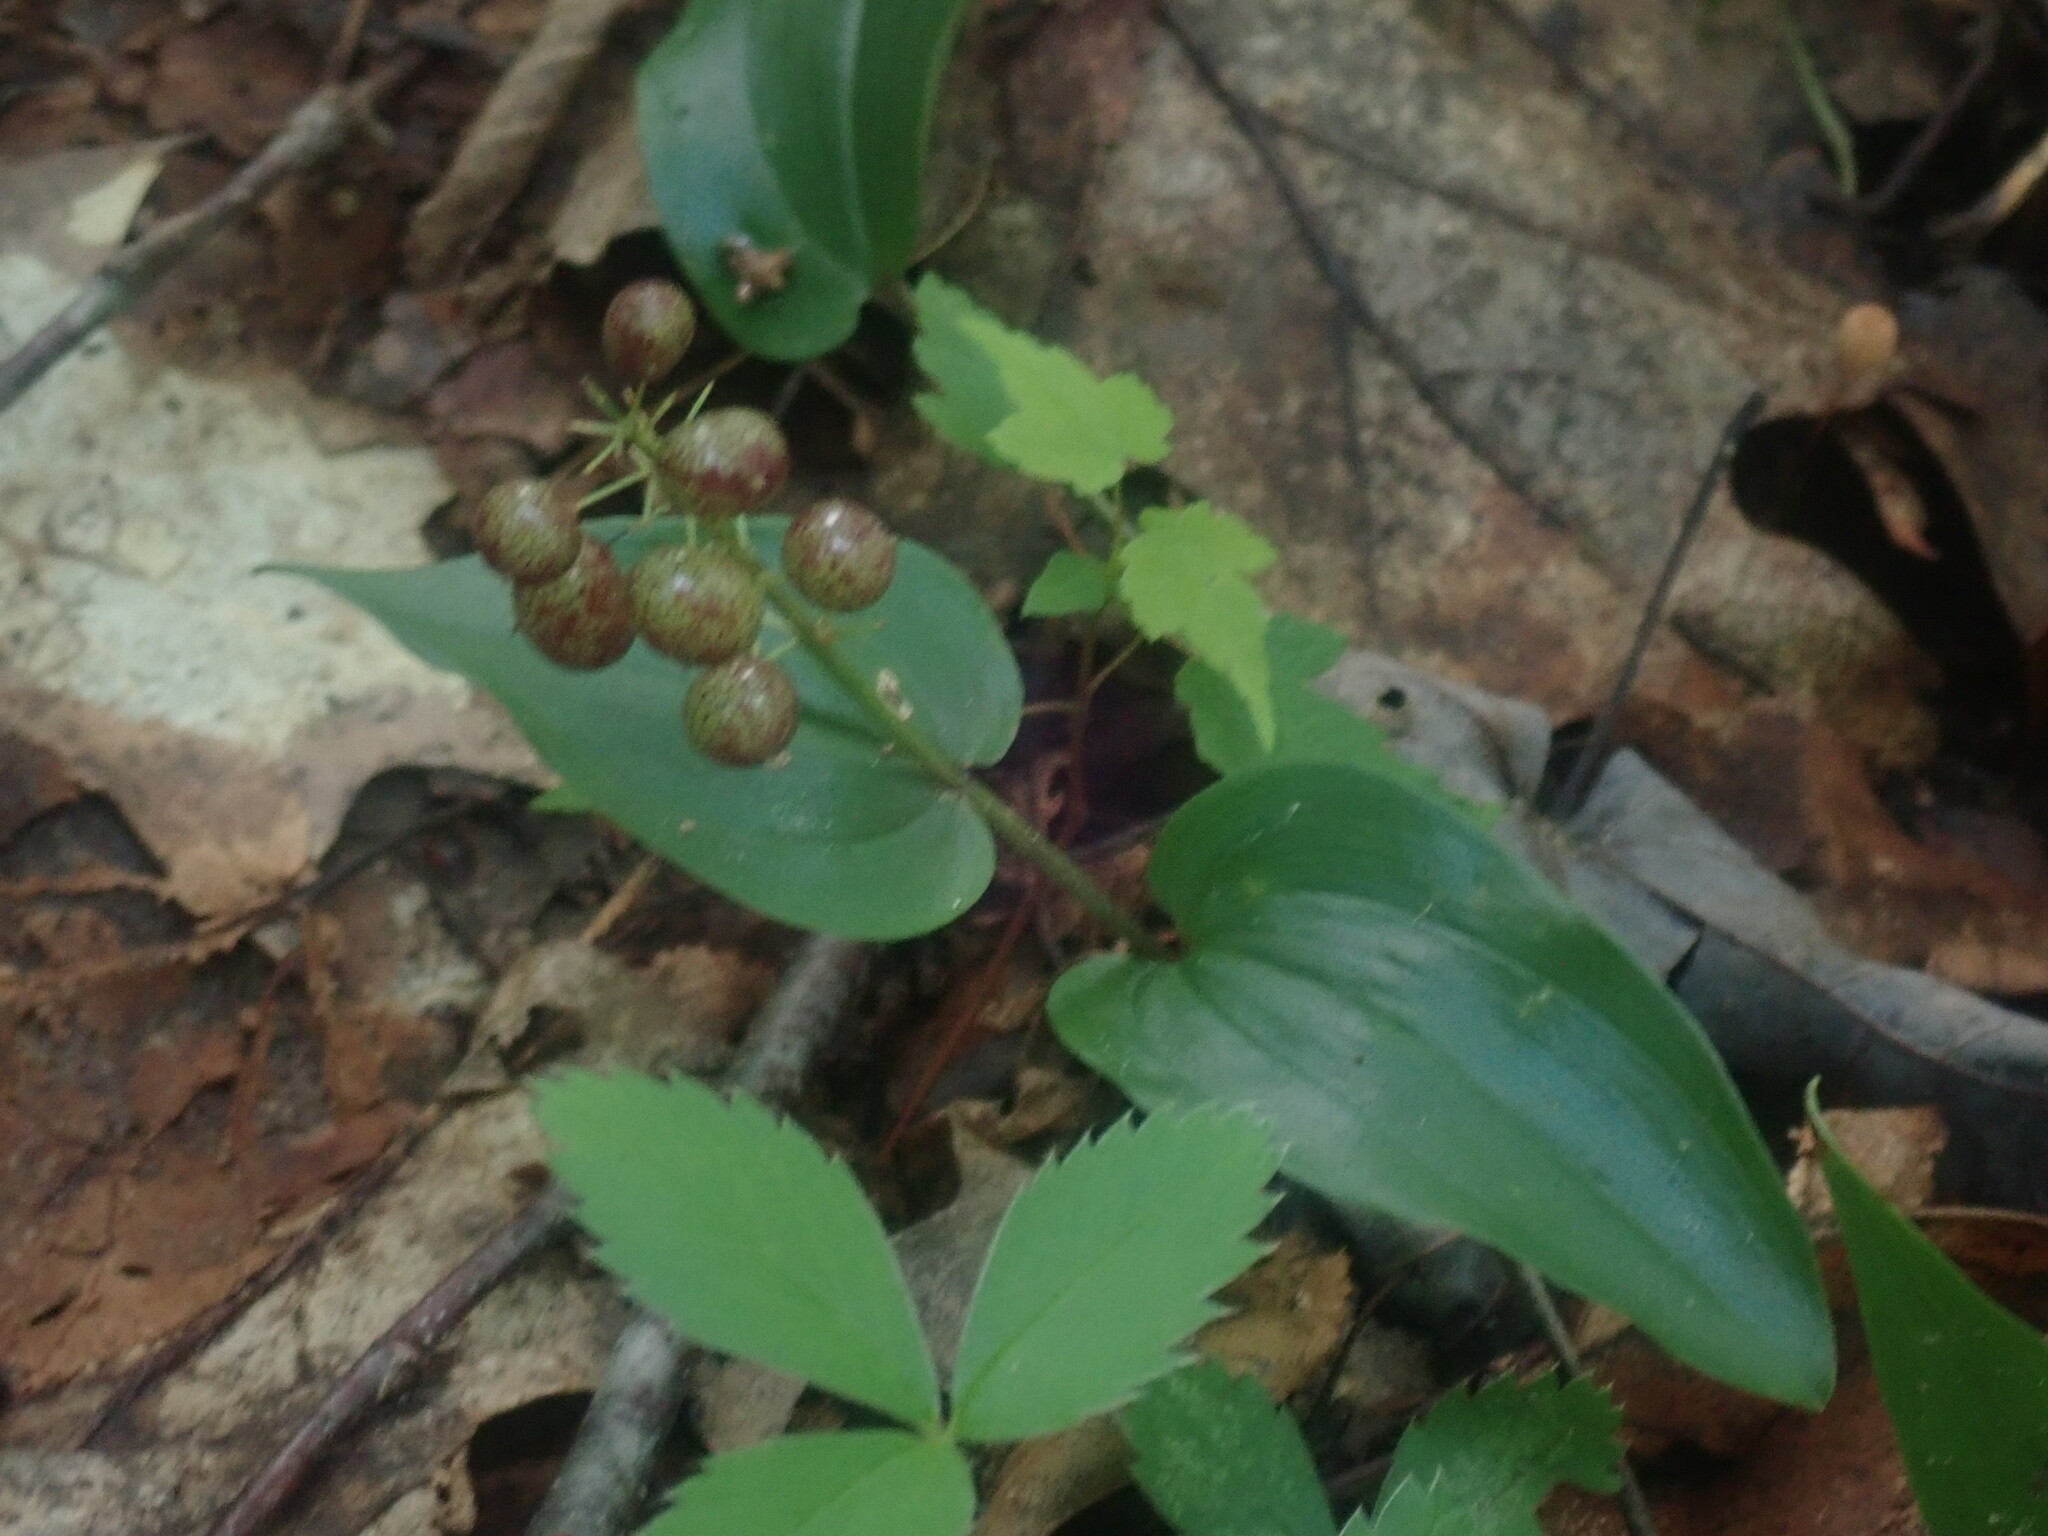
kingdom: Plantae
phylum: Tracheophyta
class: Liliopsida
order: Asparagales
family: Asparagaceae
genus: Maianthemum
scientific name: Maianthemum canadense
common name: False lily-of-the-valley
